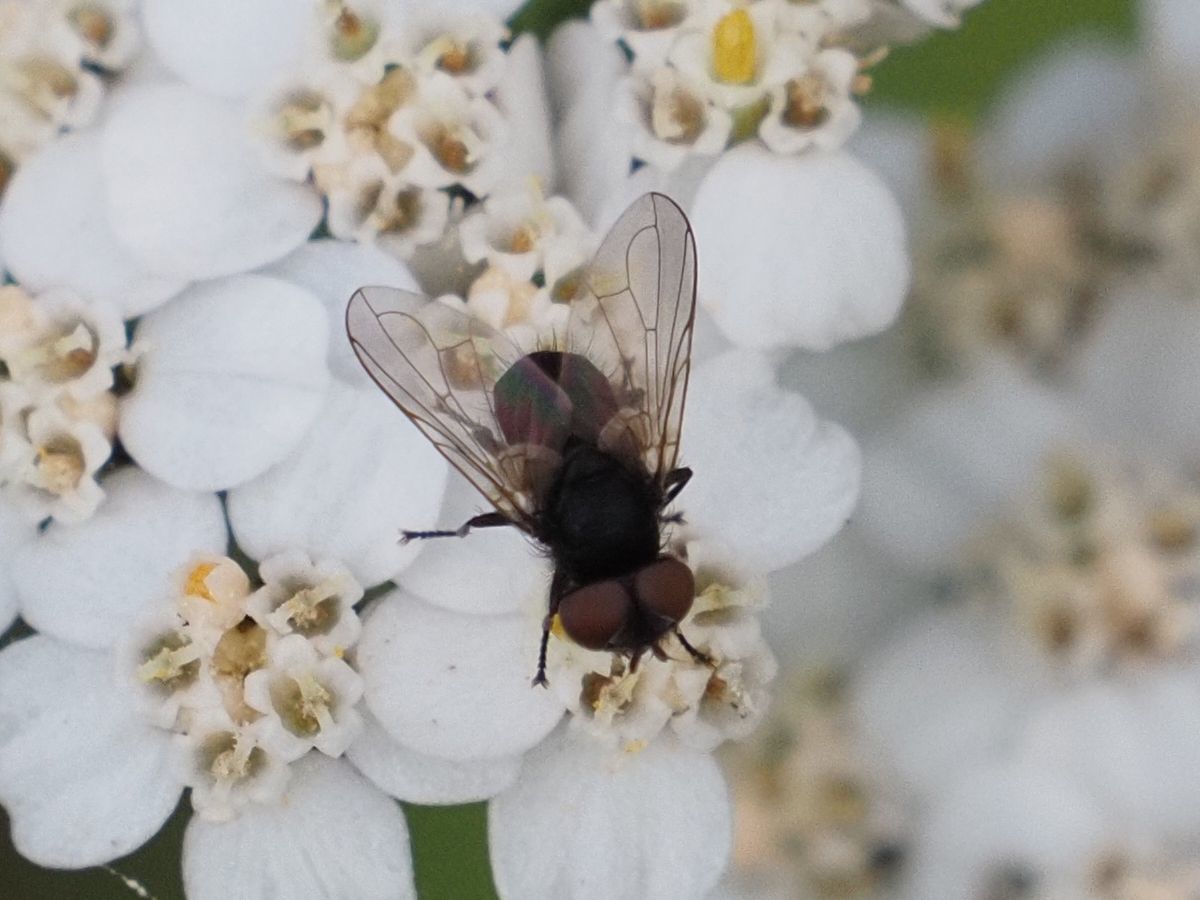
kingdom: Animalia
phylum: Arthropoda
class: Insecta
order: Diptera
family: Tachinidae
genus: Phasia
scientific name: Phasia barbifrons
